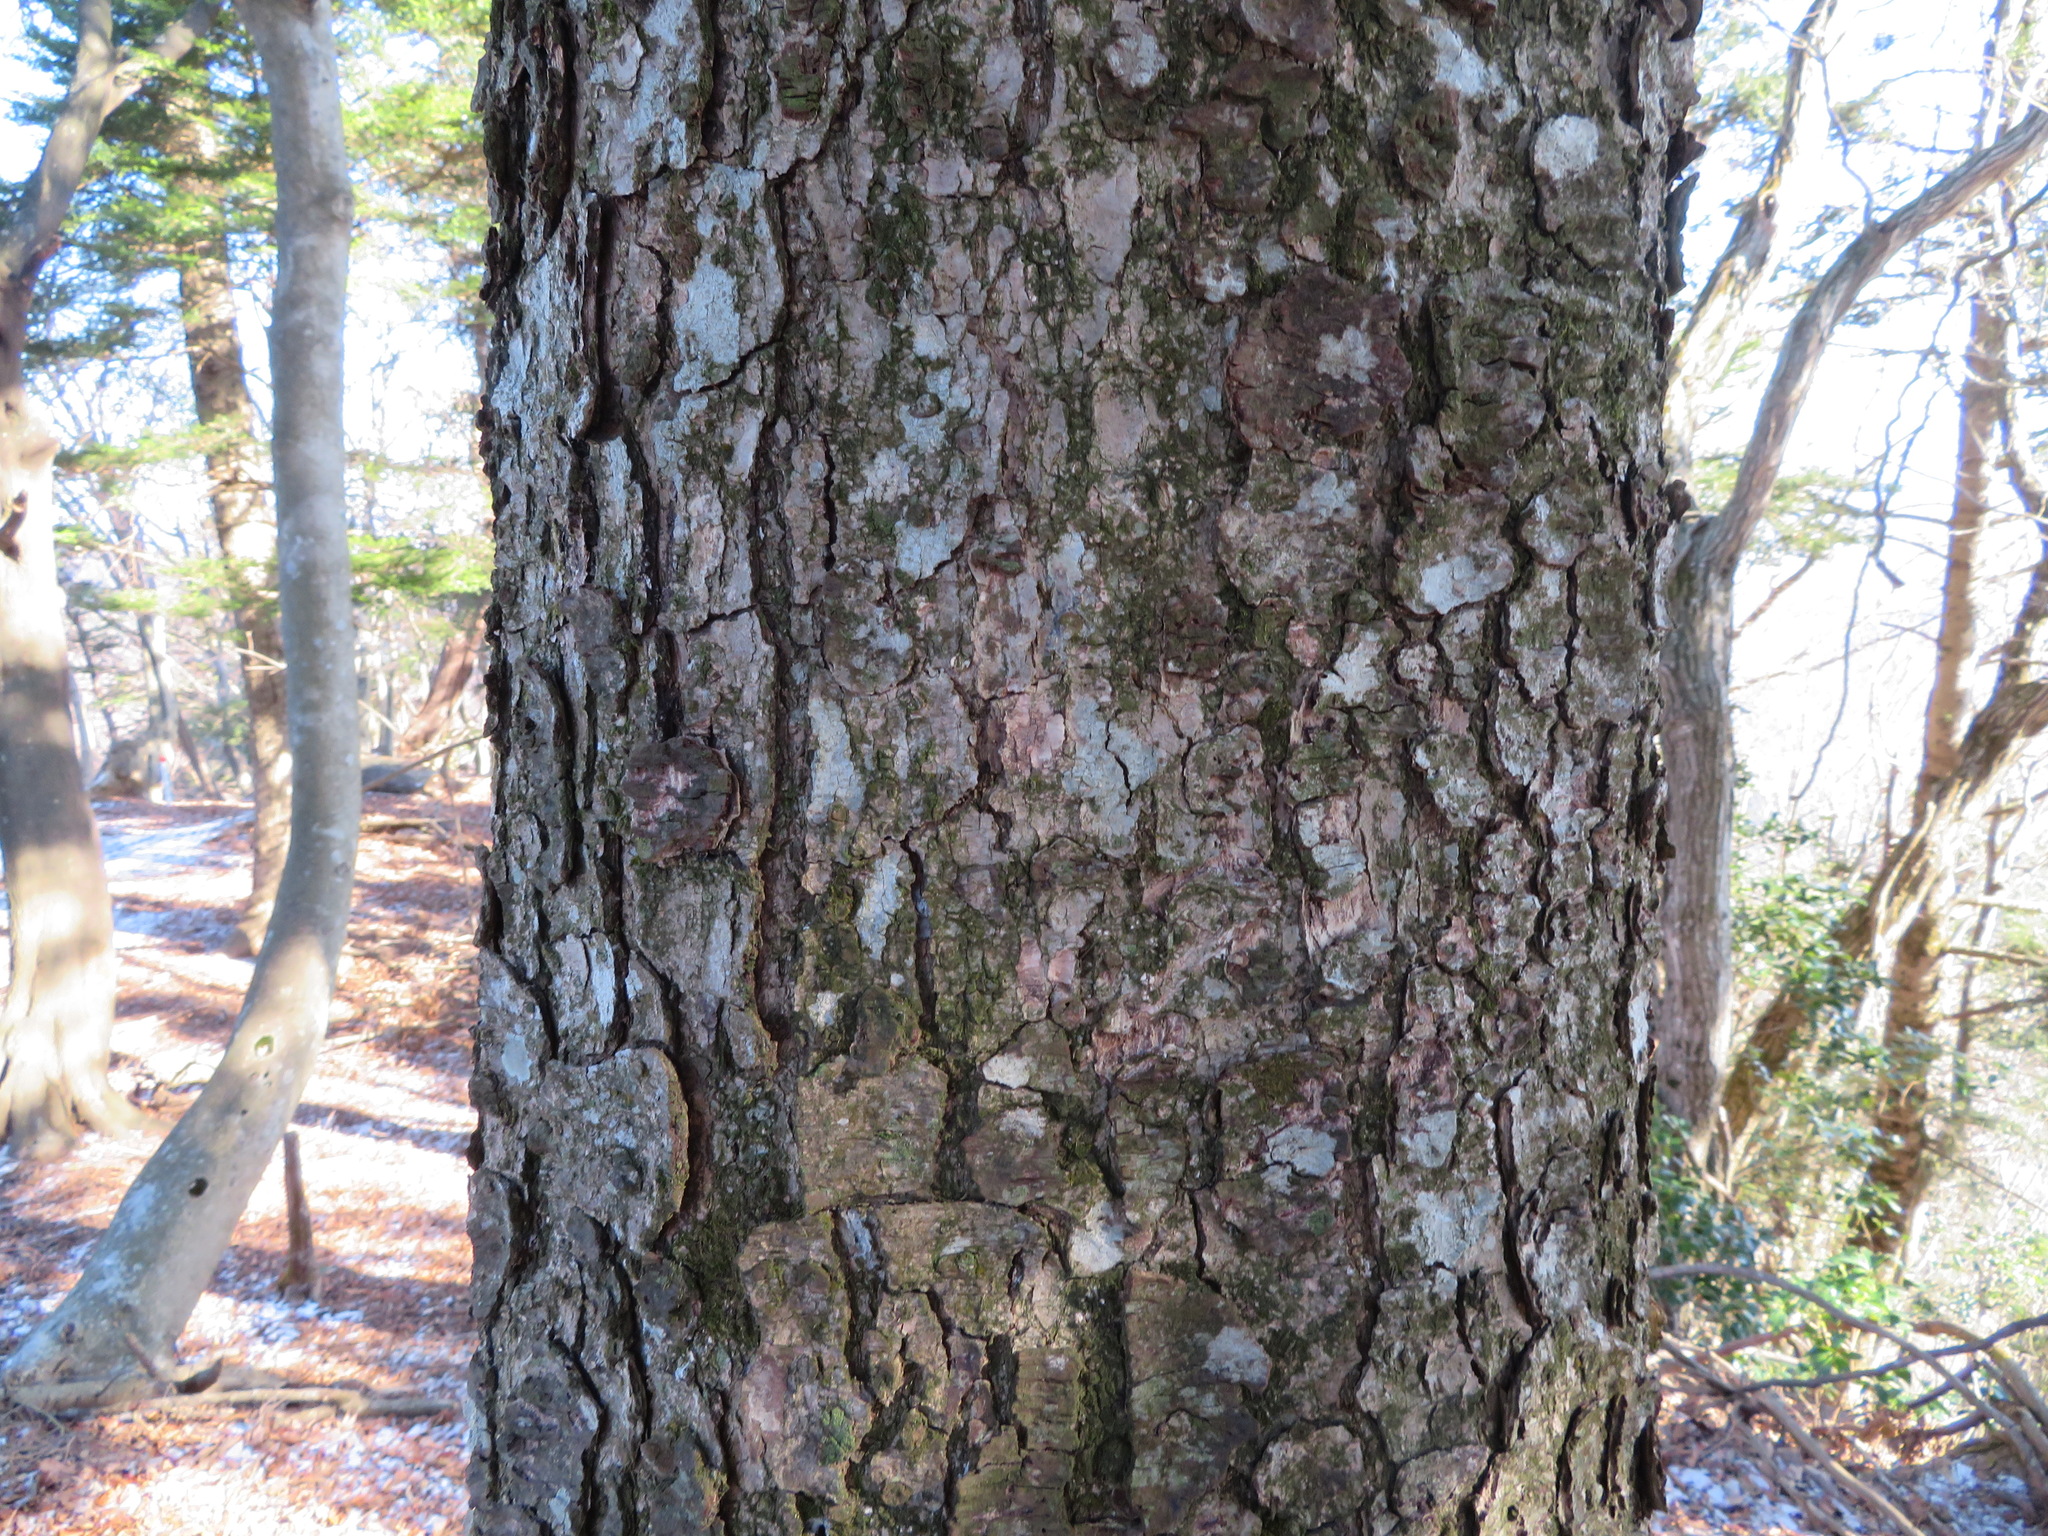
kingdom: Plantae
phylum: Tracheophyta
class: Pinopsida
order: Pinales
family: Pinaceae
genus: Abies
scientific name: Abies firma
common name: Momi fir
